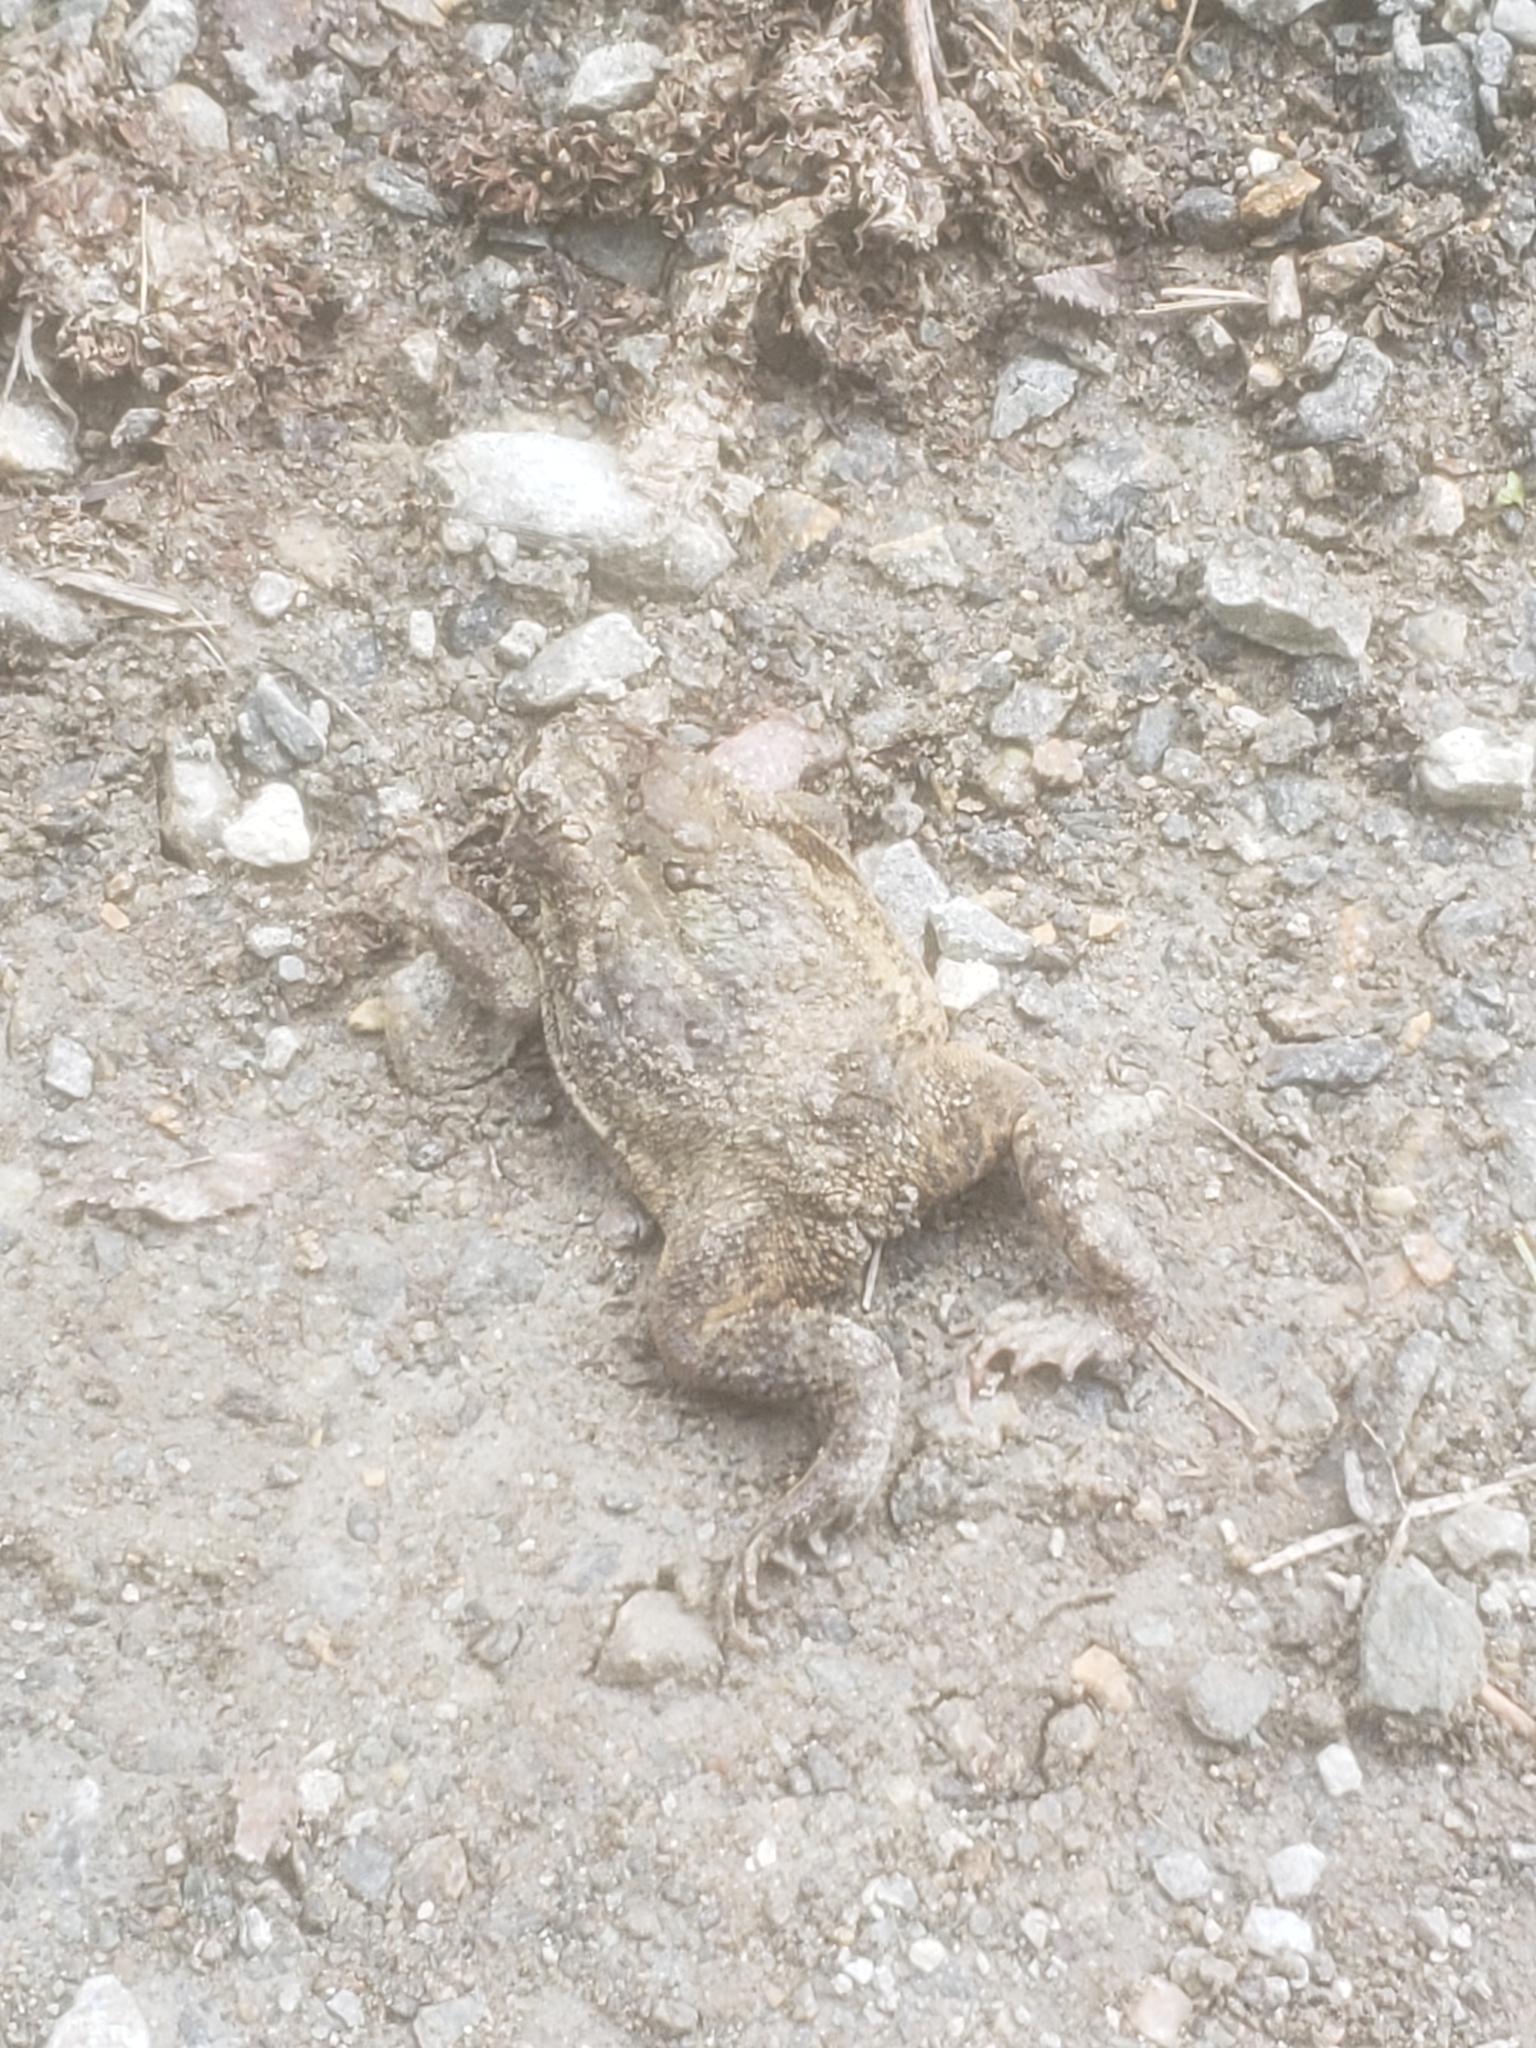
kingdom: Animalia
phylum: Chordata
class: Amphibia
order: Anura
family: Bufonidae
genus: Anaxyrus
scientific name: Anaxyrus americanus
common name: American toad
